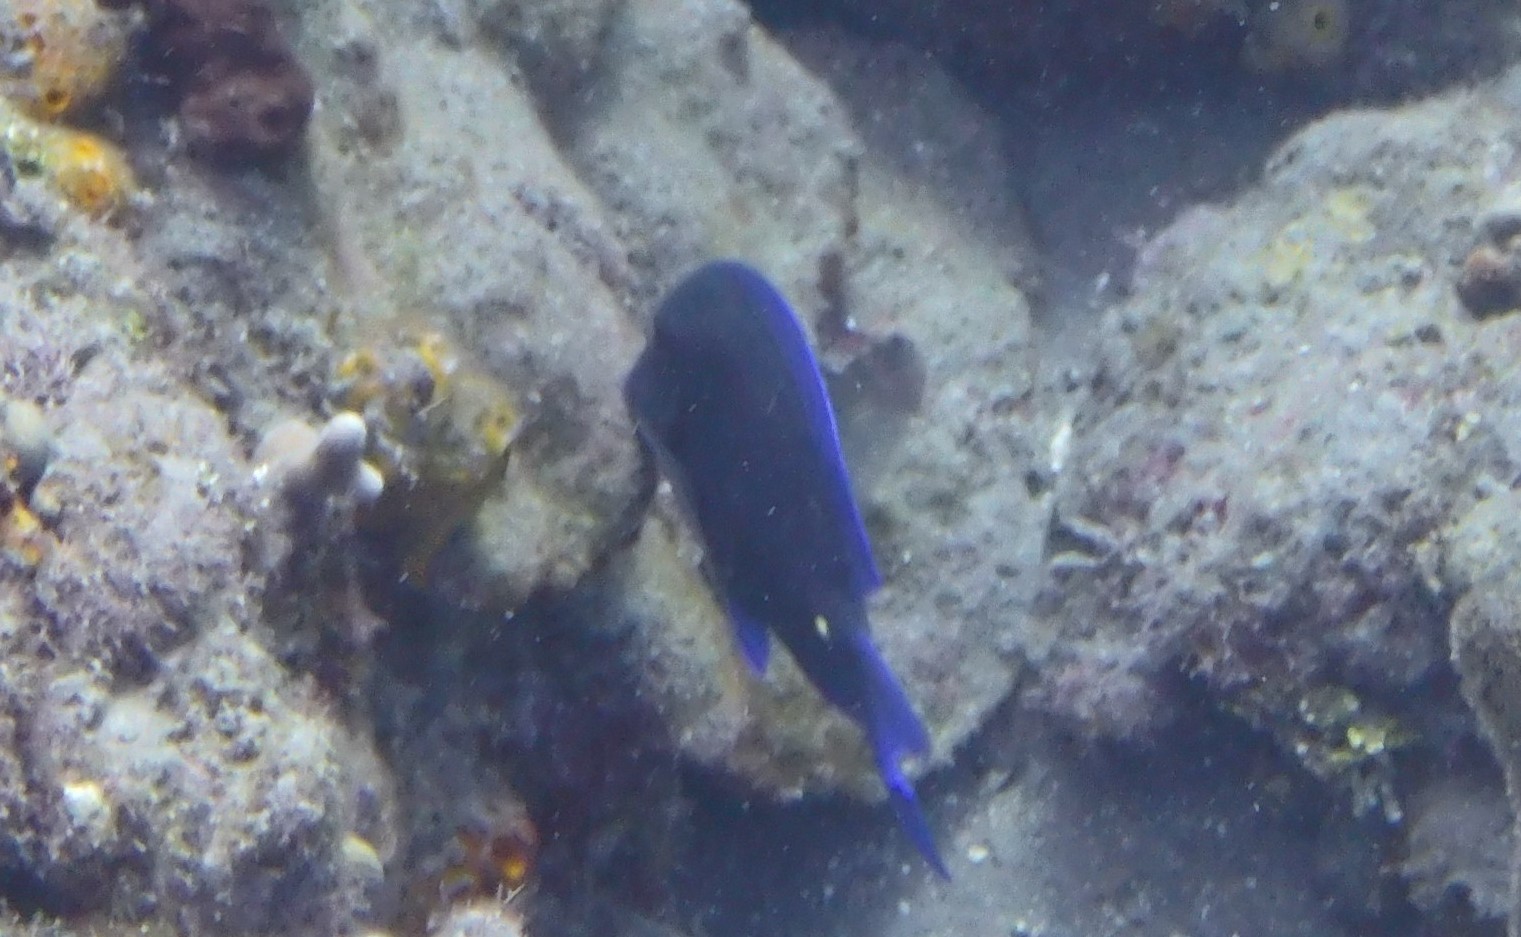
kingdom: Animalia
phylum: Chordata
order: Perciformes
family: Acanthuridae
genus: Acanthurus
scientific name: Acanthurus coeruleus
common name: Blue tang
